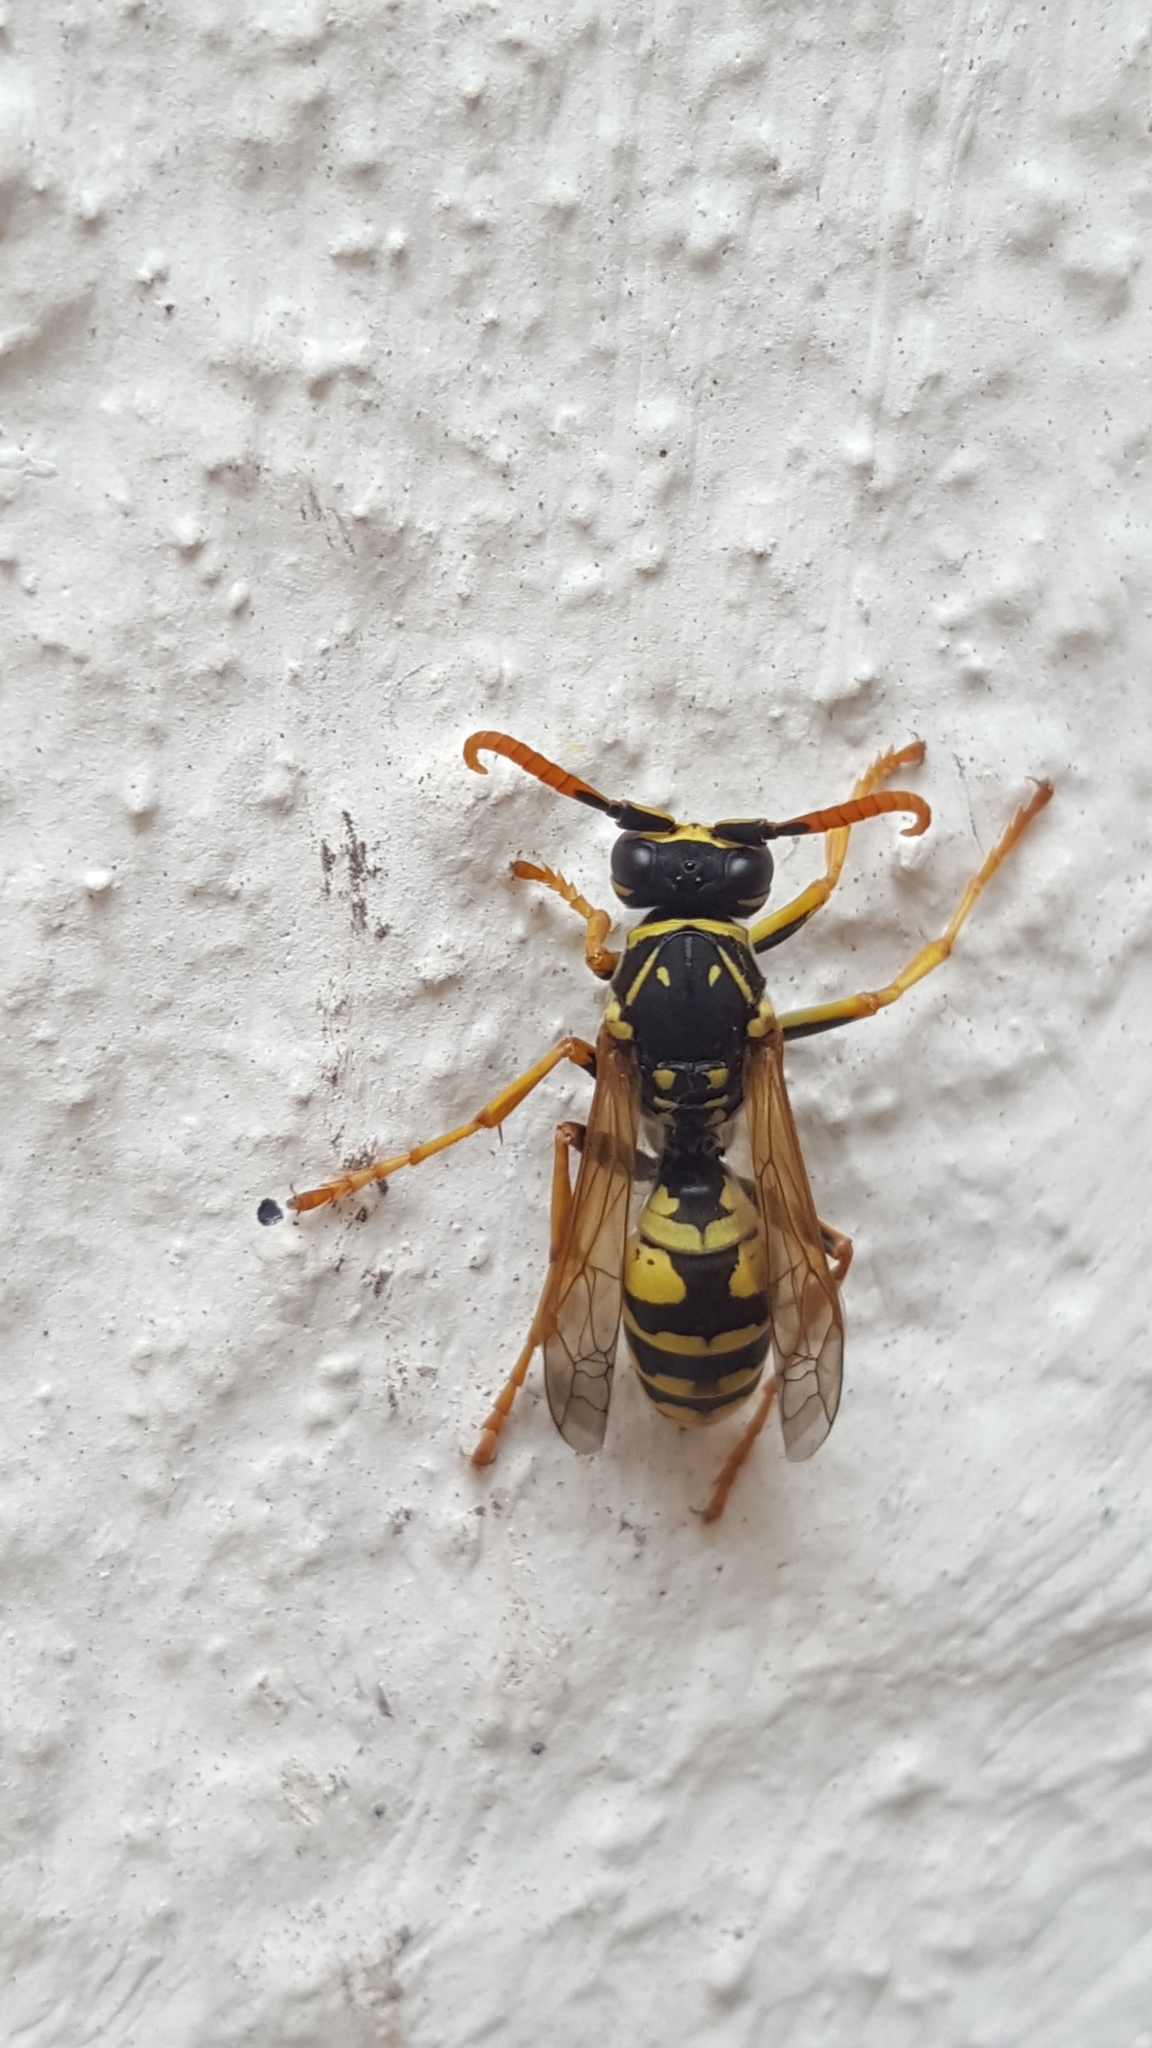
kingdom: Animalia
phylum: Arthropoda
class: Insecta
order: Hymenoptera
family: Eumenidae
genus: Polistes
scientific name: Polistes dominula
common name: Paper wasp
